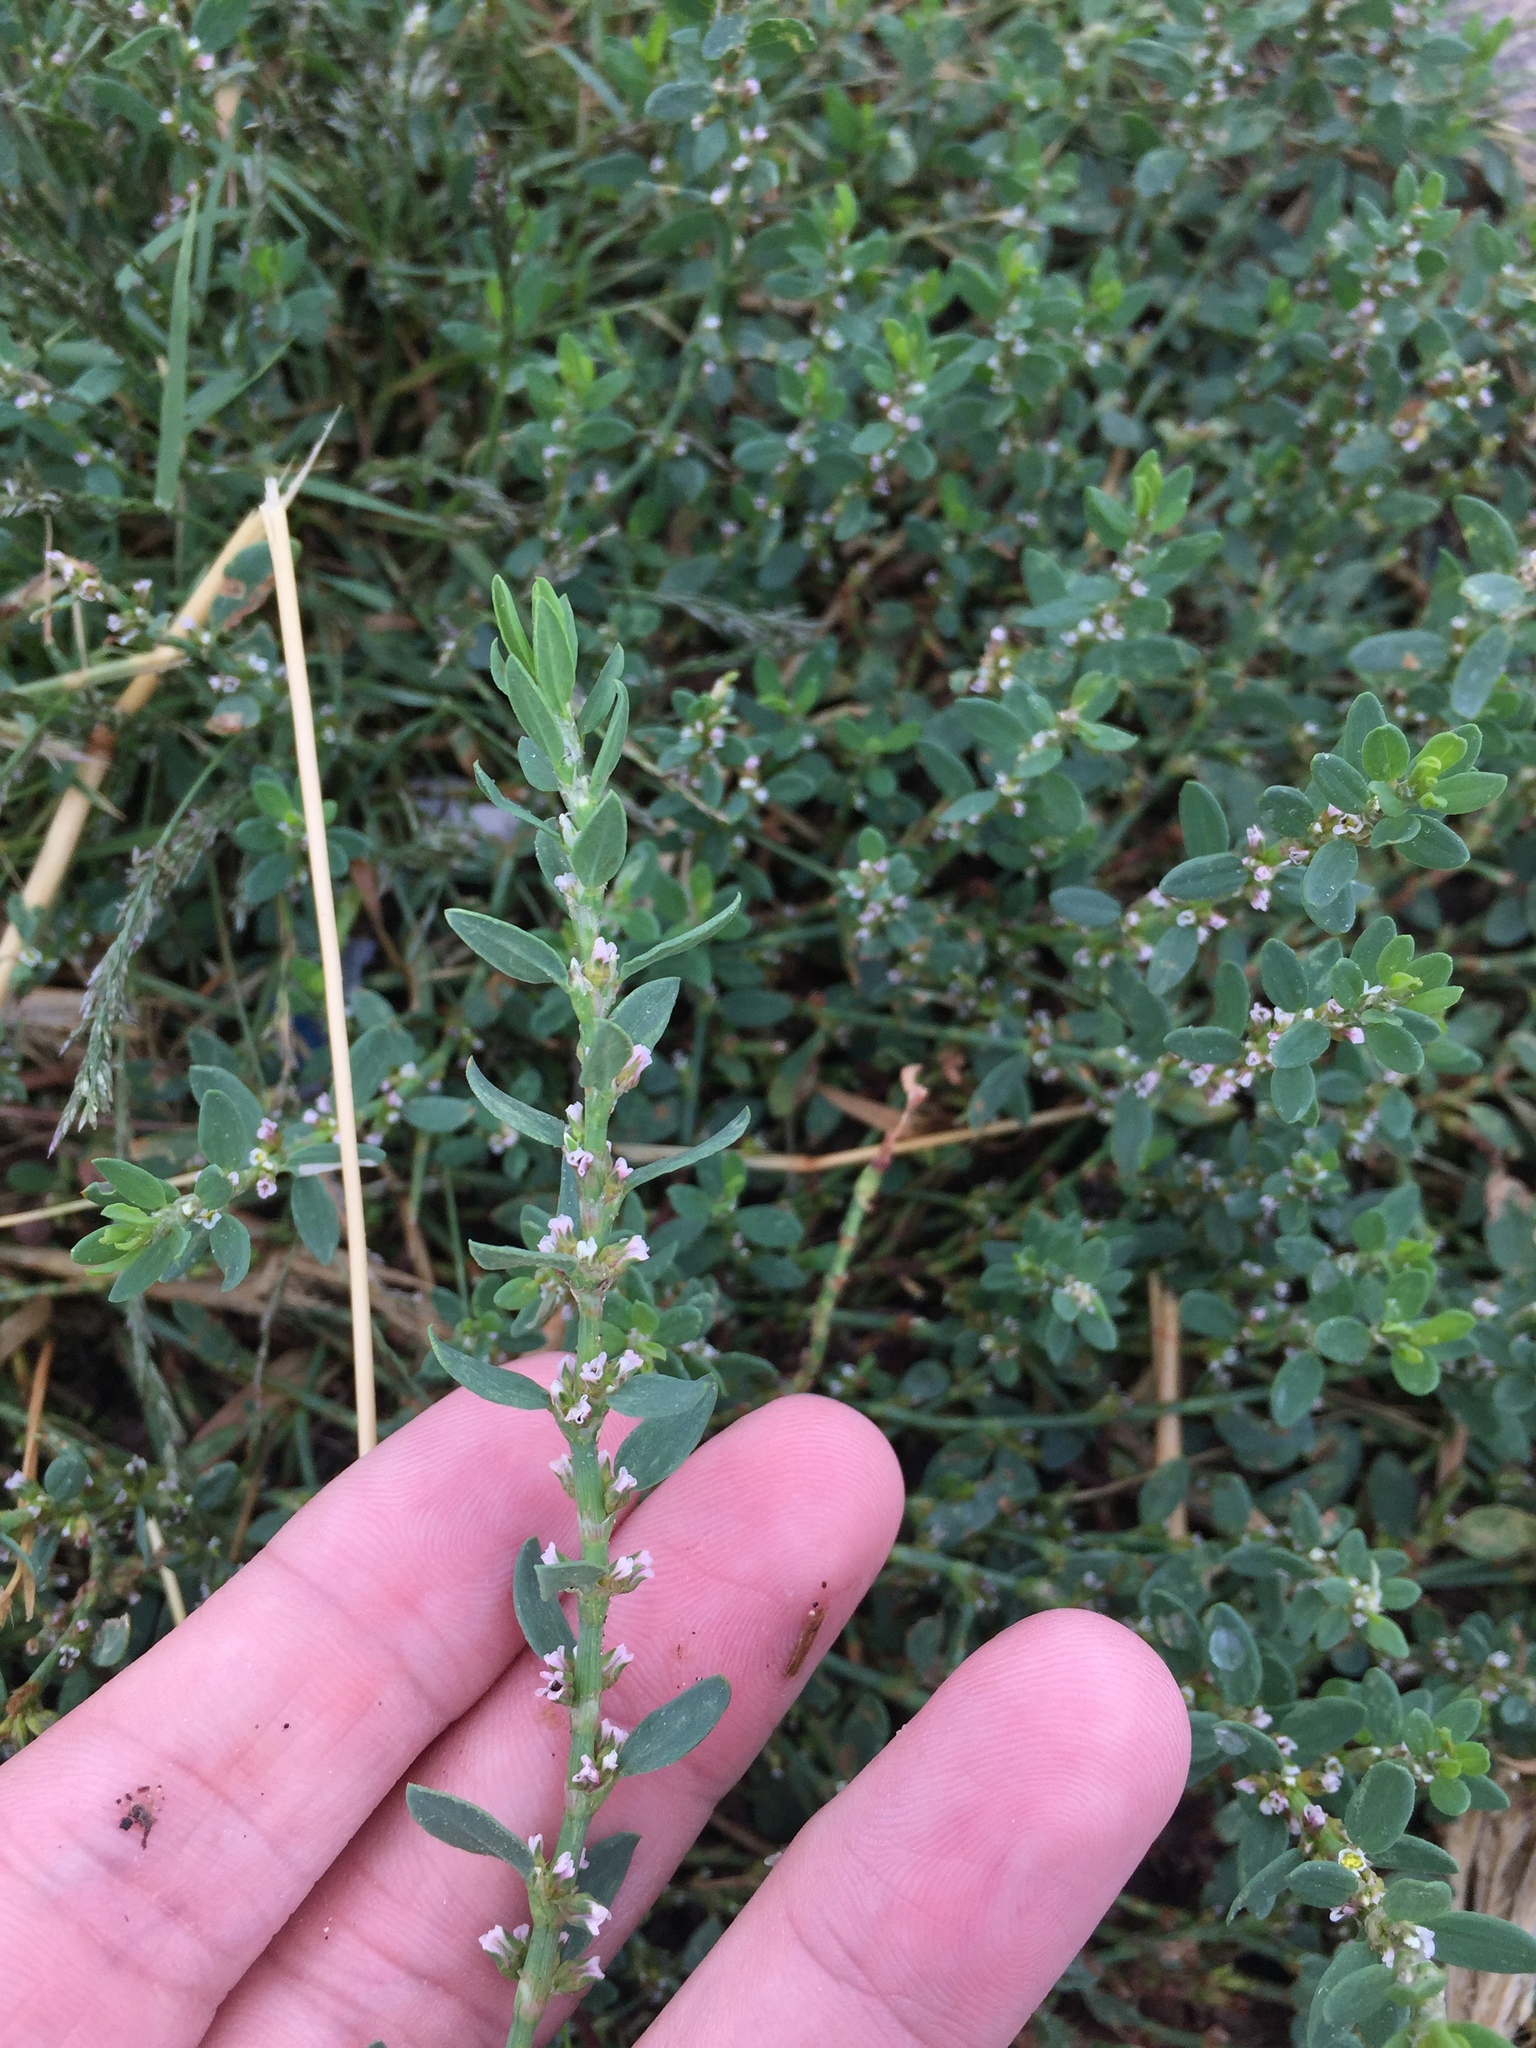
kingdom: Plantae
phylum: Tracheophyta
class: Magnoliopsida
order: Caryophyllales
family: Polygonaceae
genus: Polygonum
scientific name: Polygonum aviculare
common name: Prostrate knotweed
